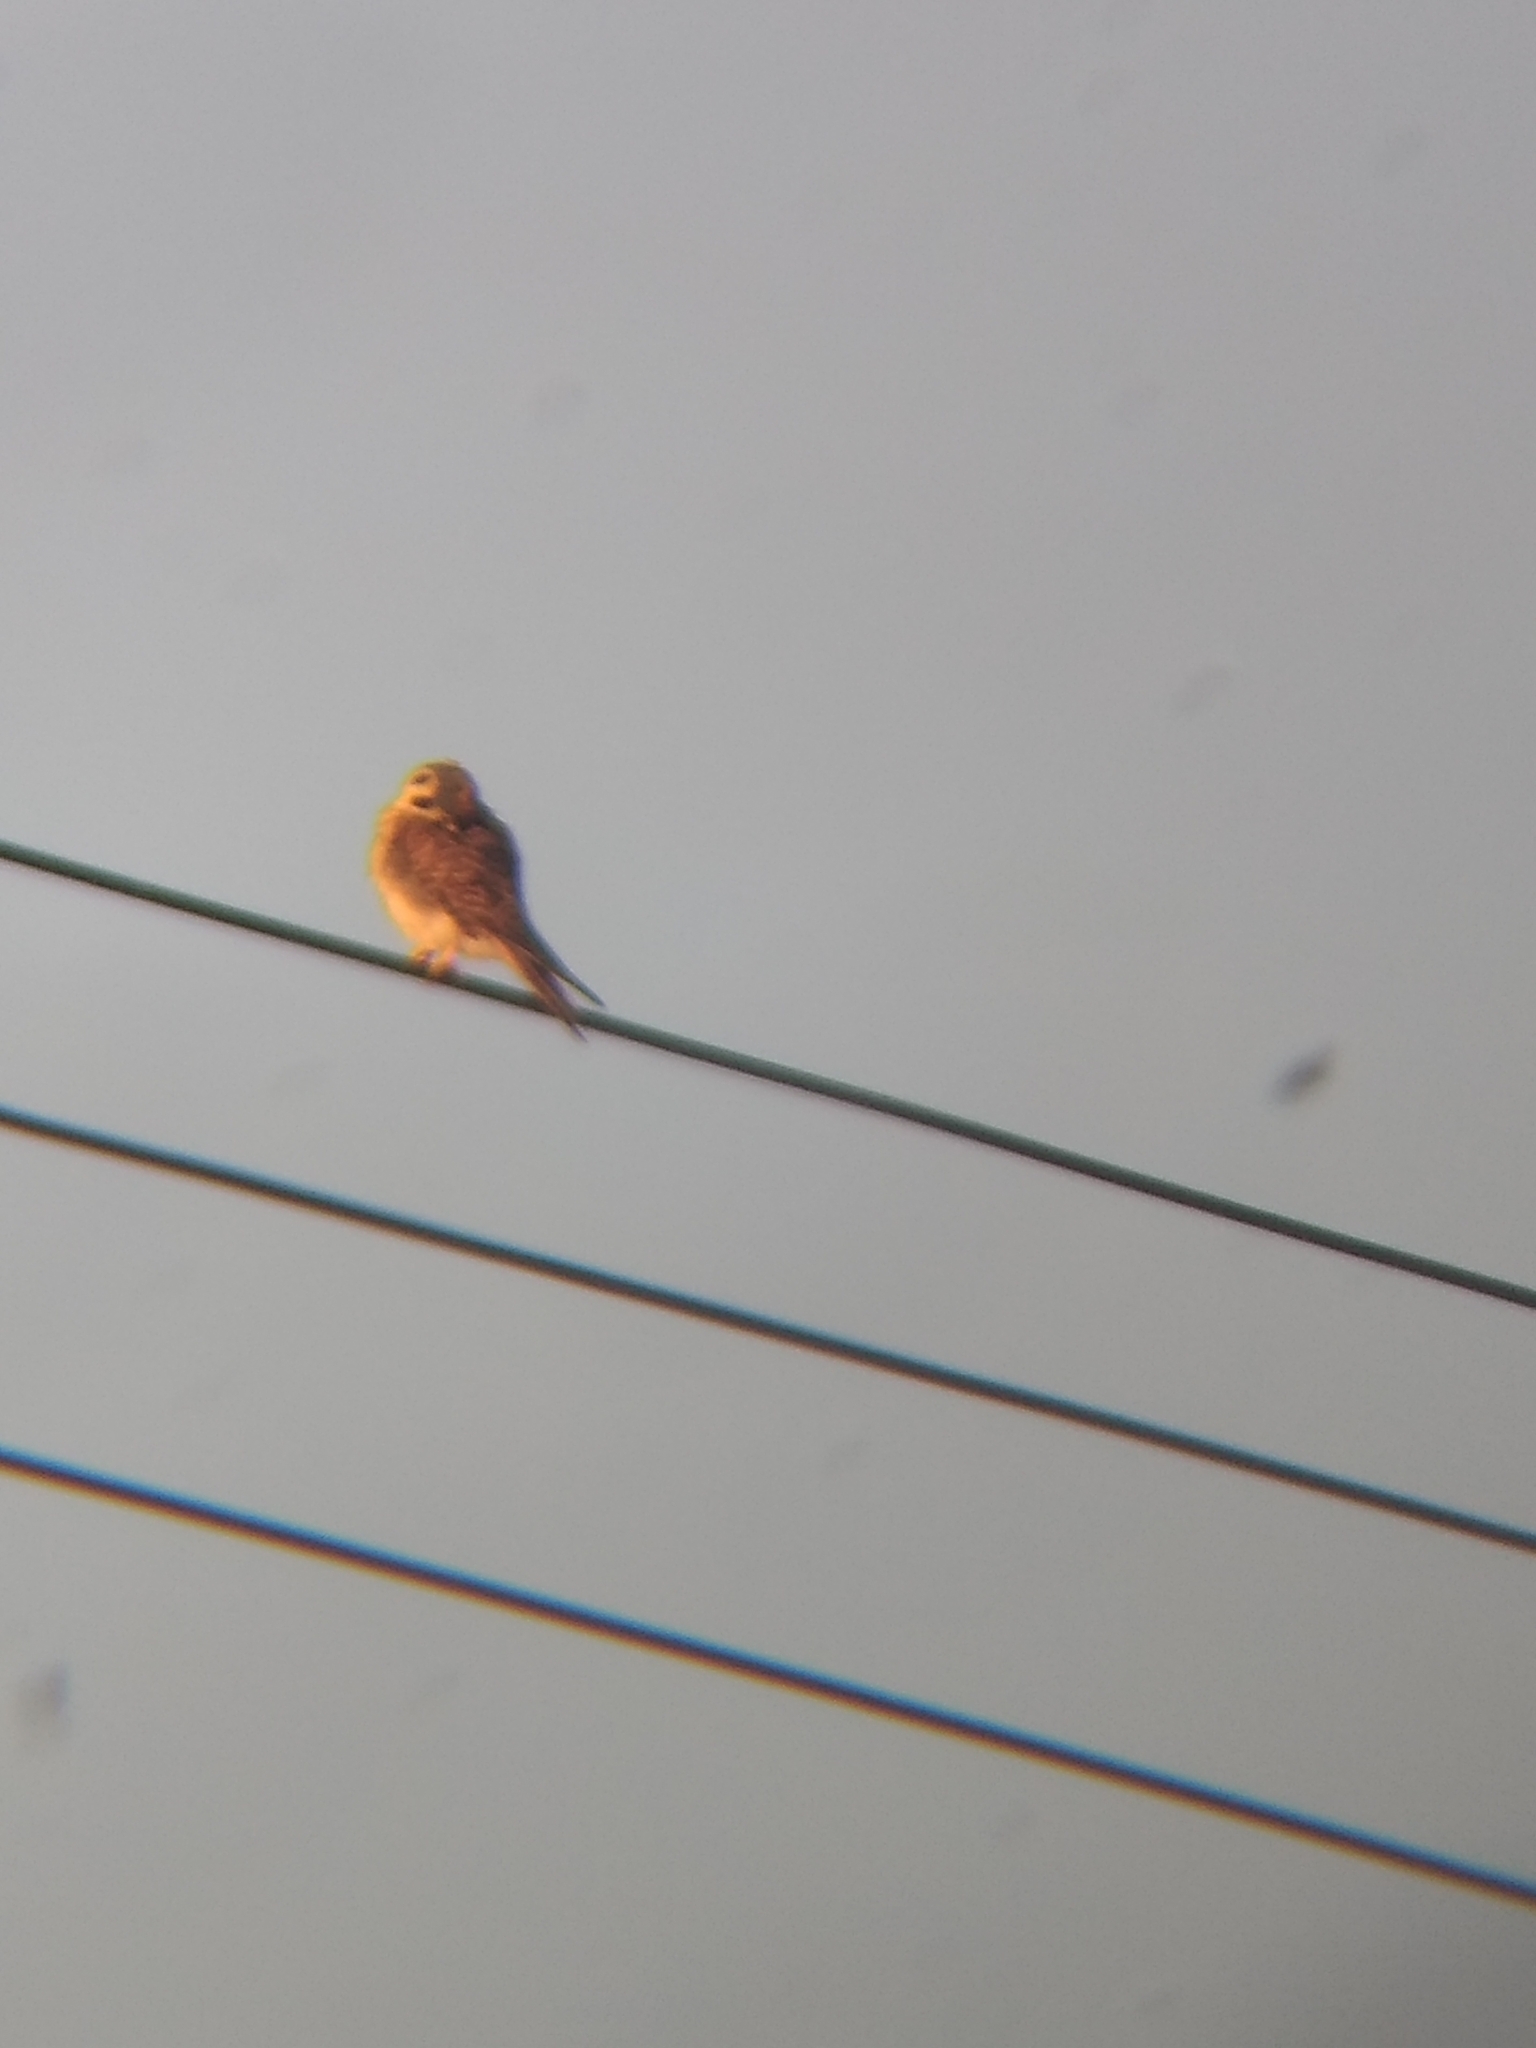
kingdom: Animalia
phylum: Chordata
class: Aves
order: Falconiformes
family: Falconidae
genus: Falco
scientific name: Falco sparverius
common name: American kestrel
